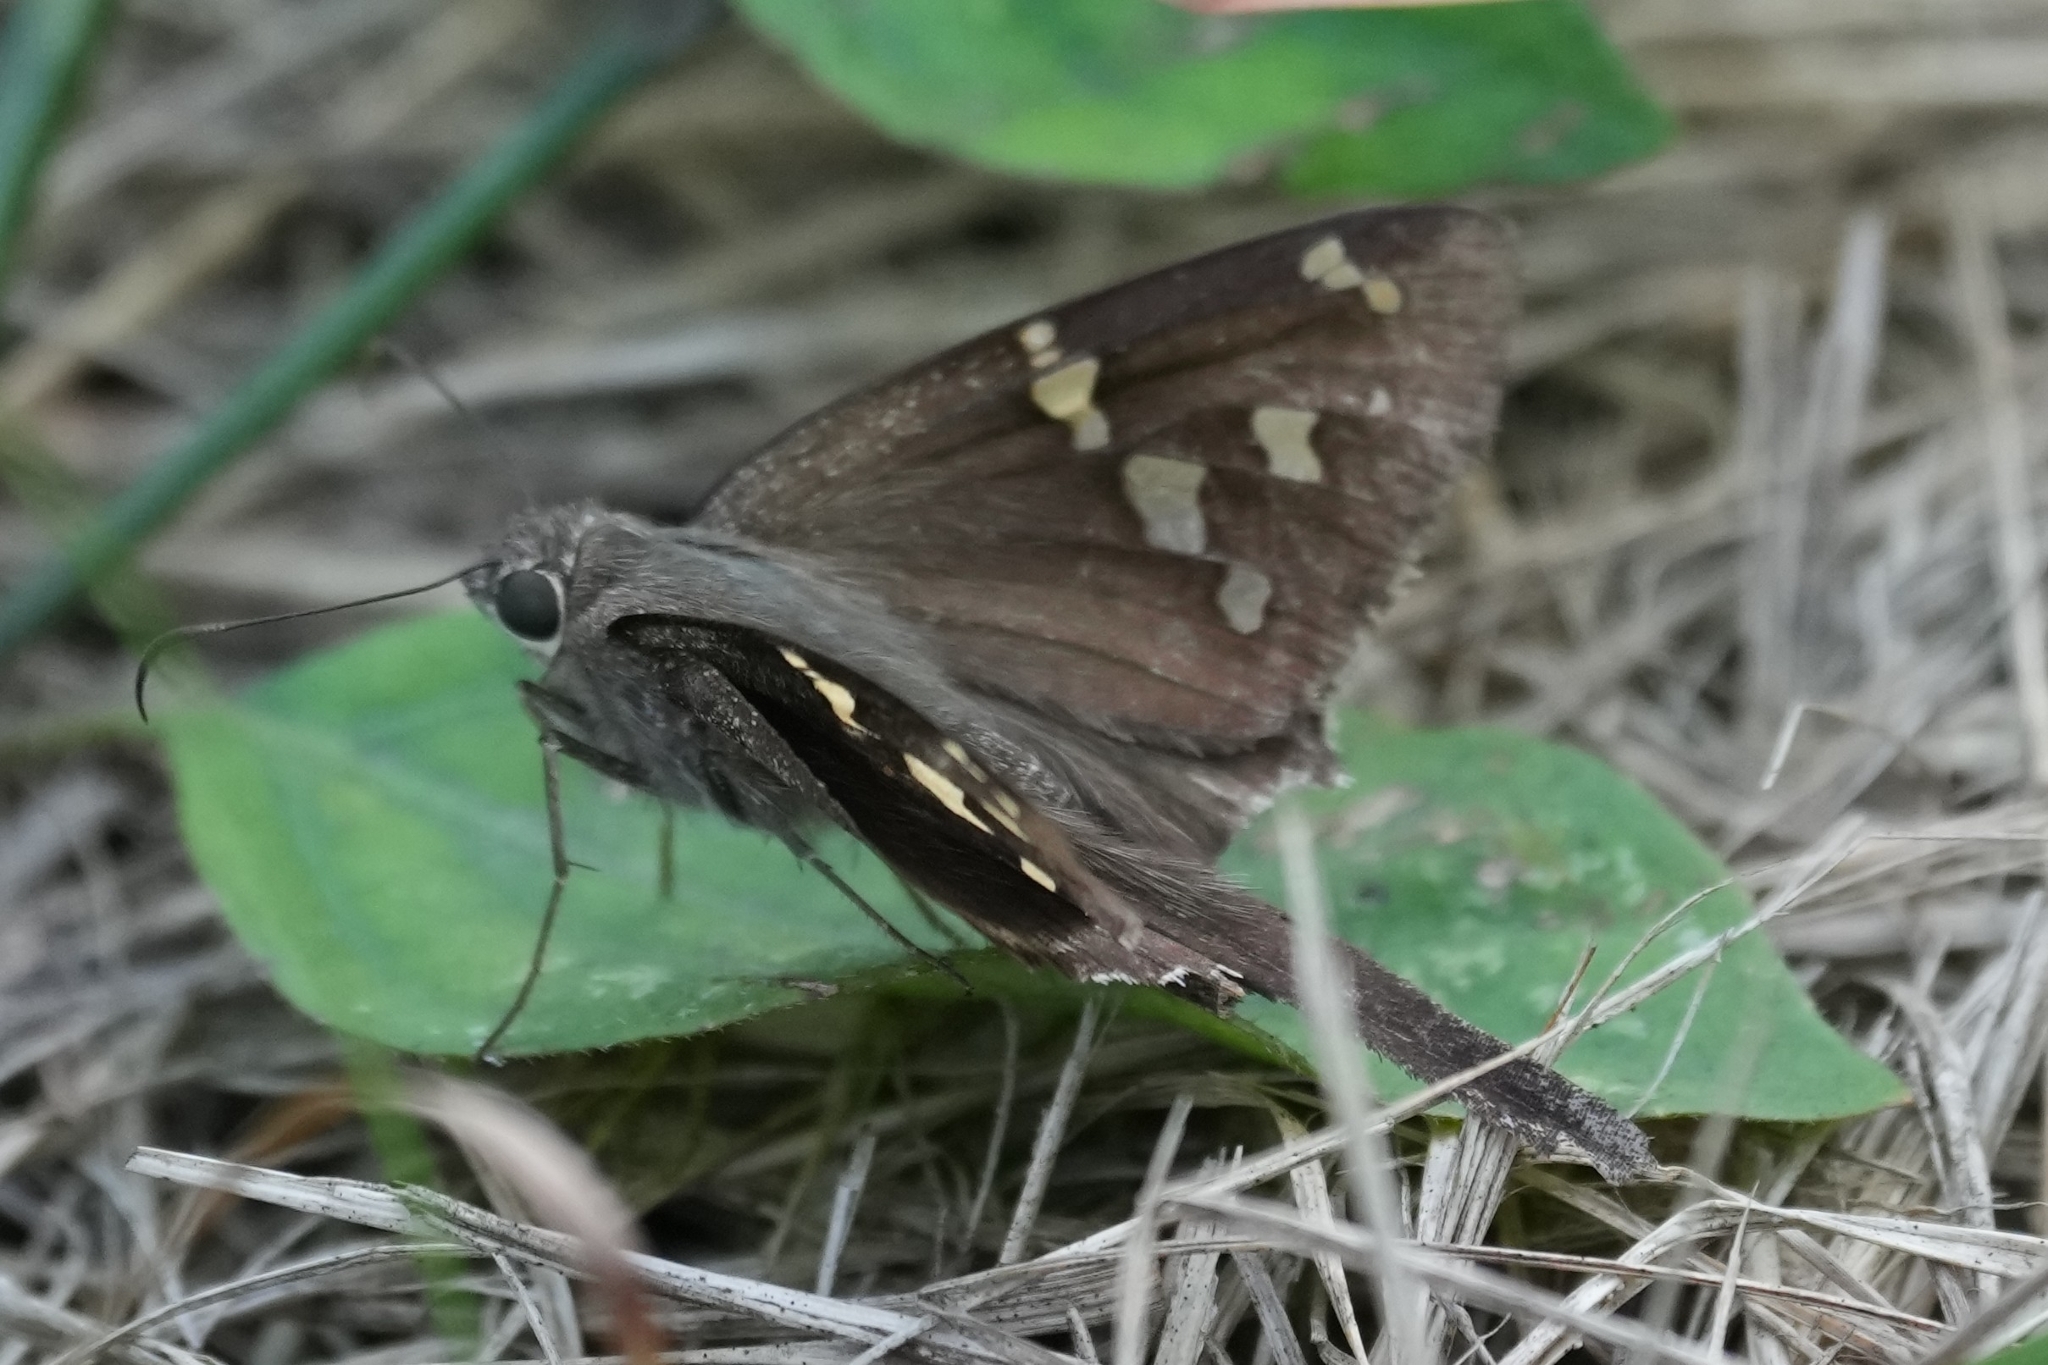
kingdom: Animalia
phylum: Arthropoda
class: Insecta
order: Lepidoptera
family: Hesperiidae
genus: Thorybes
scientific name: Thorybes
